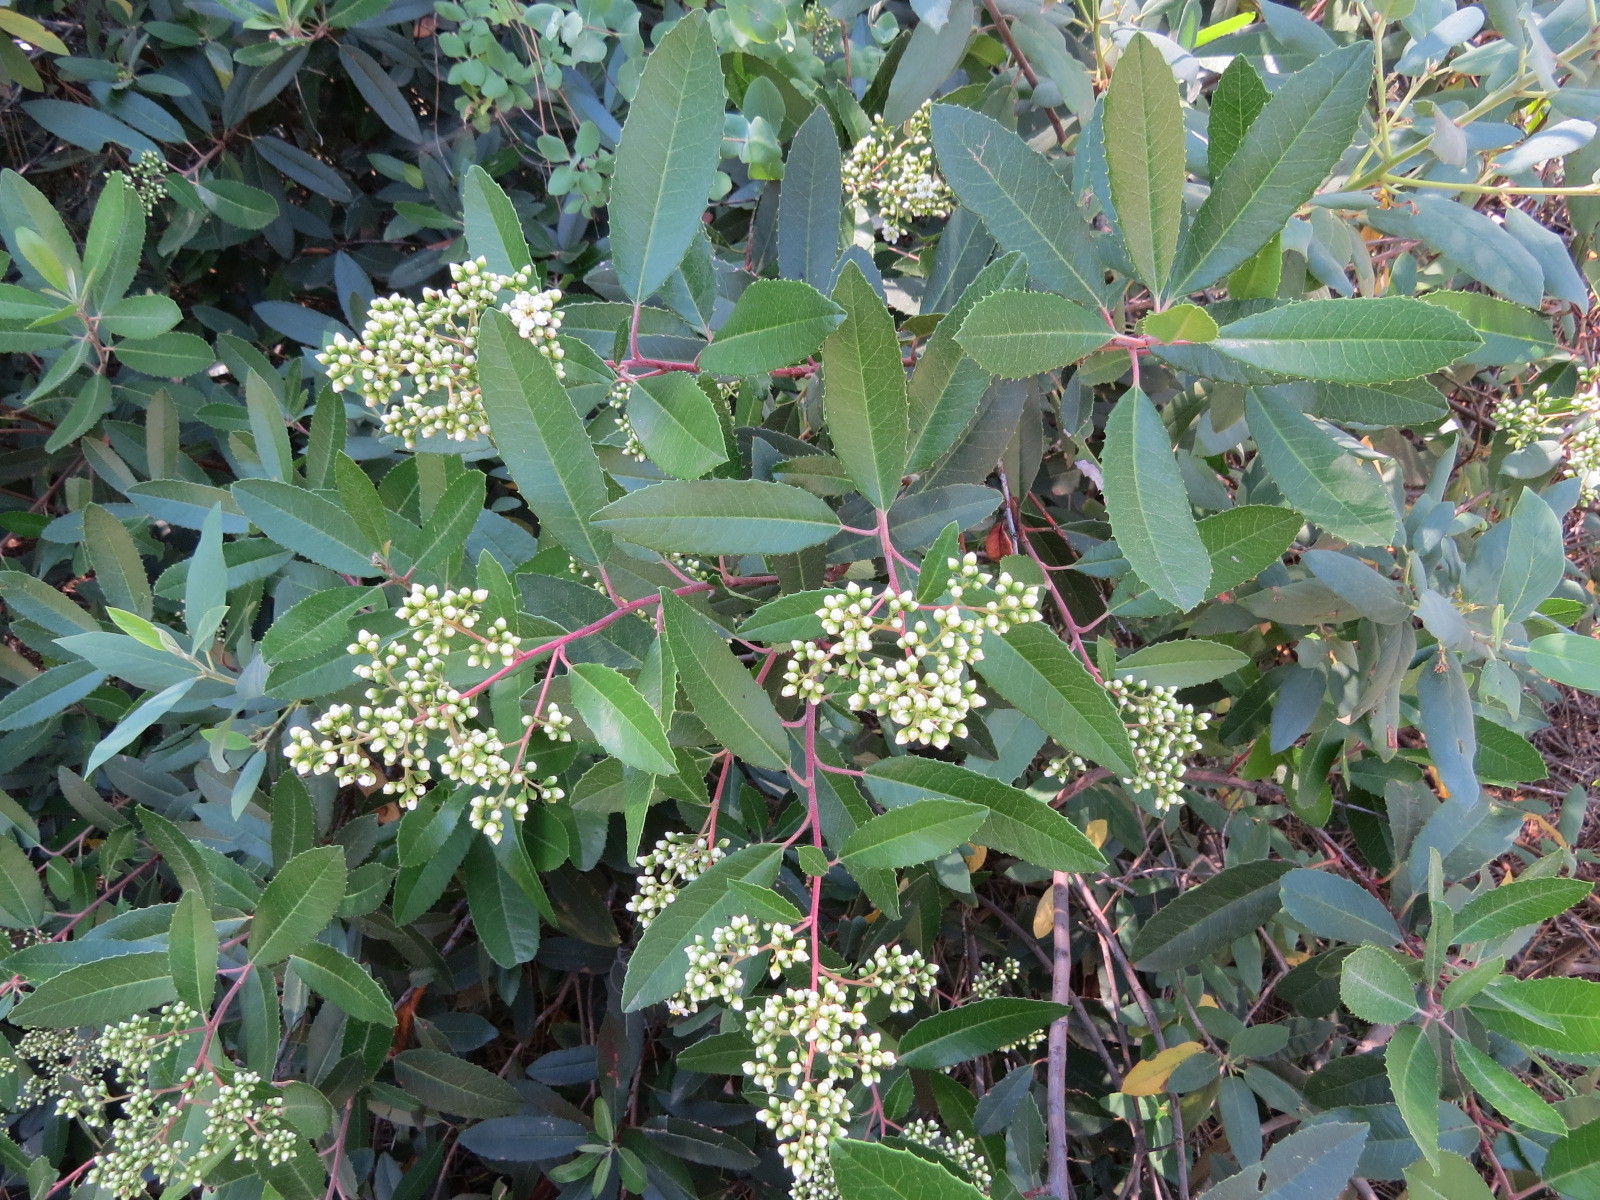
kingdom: Plantae
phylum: Tracheophyta
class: Magnoliopsida
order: Rosales
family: Rosaceae
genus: Heteromeles
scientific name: Heteromeles arbutifolia
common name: California-holly
